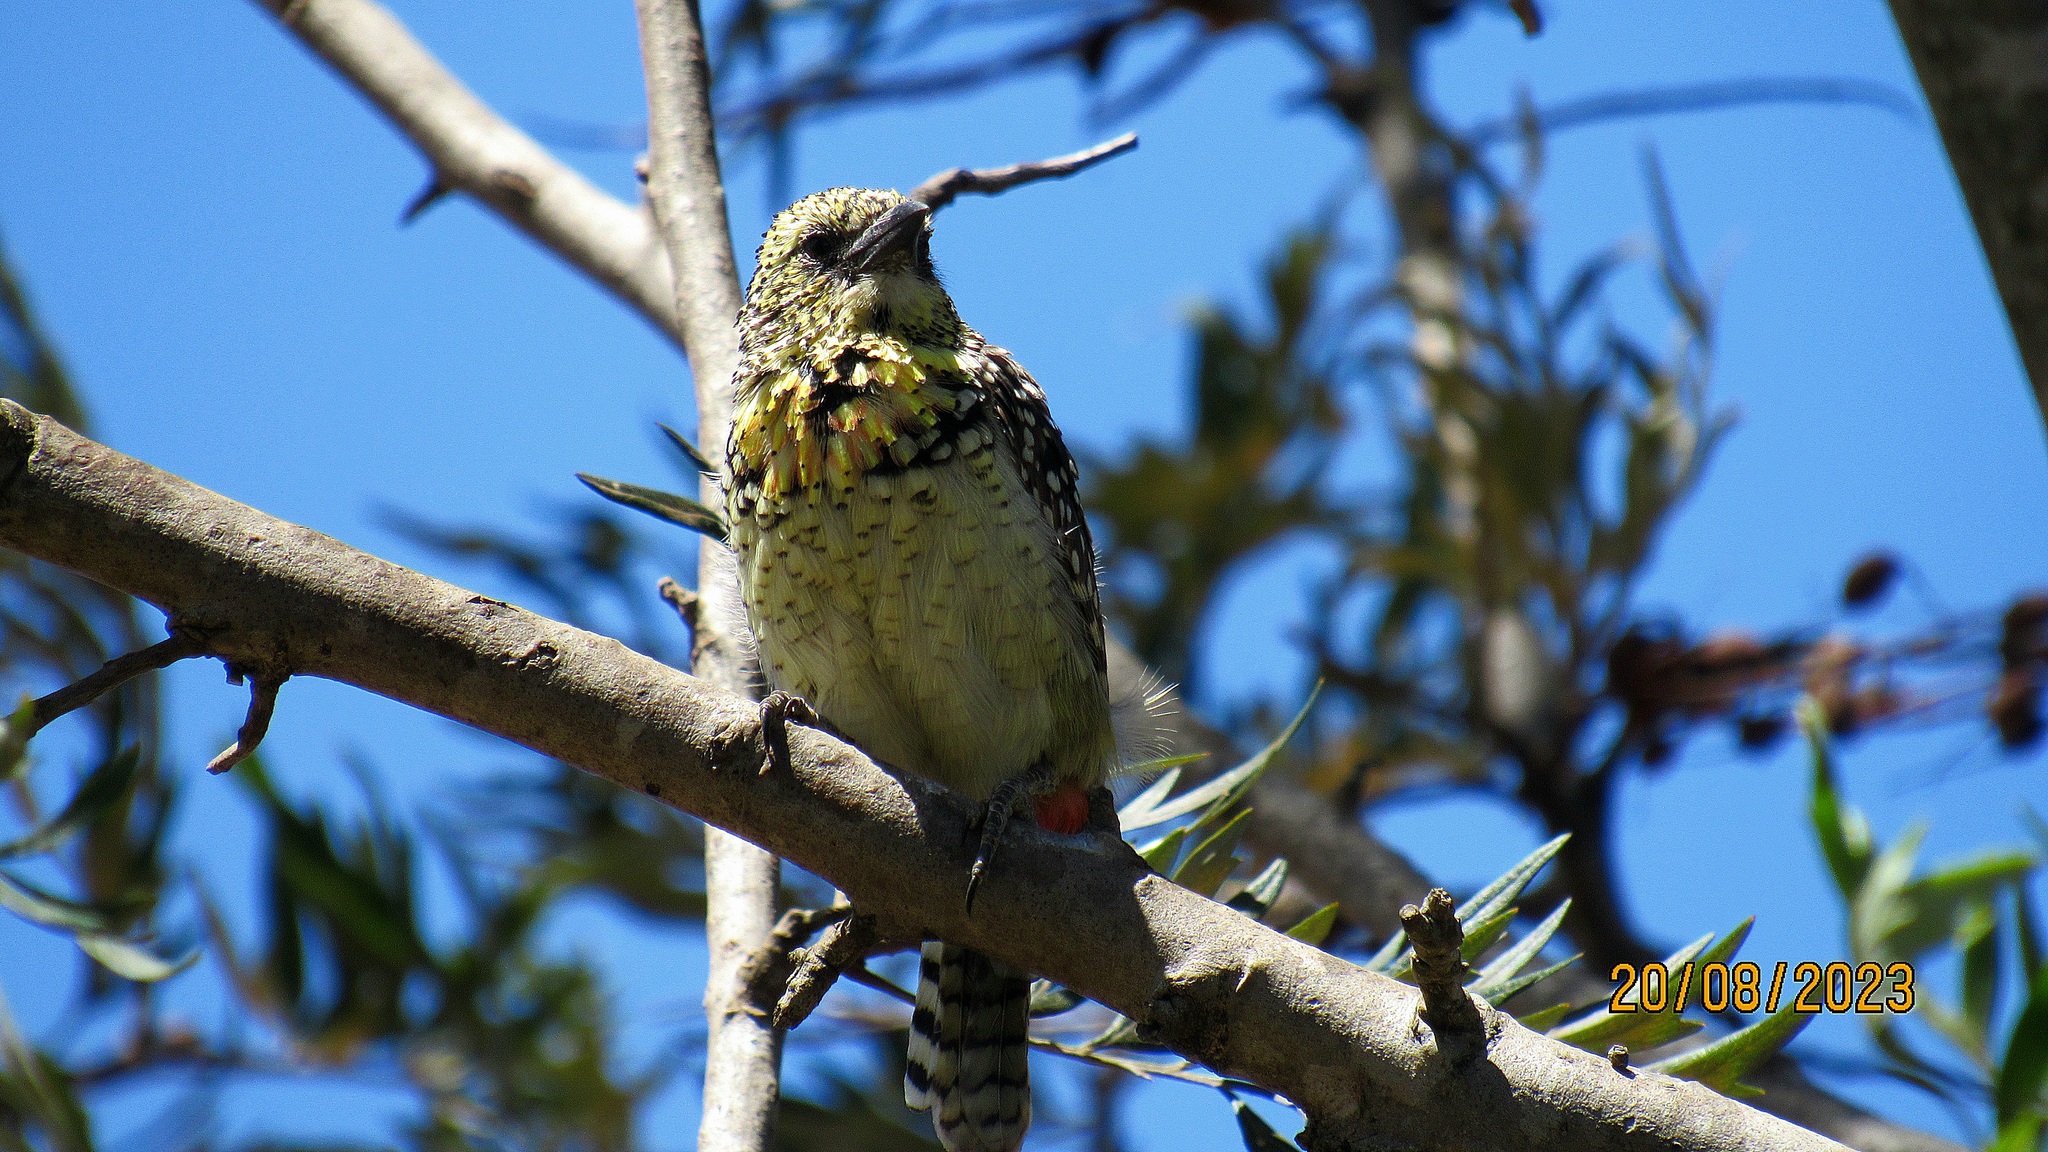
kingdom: Animalia
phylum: Chordata
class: Aves
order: Piciformes
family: Lybiidae
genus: Trachyphonus
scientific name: Trachyphonus darnaudii
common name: D'arnaud's barbet
